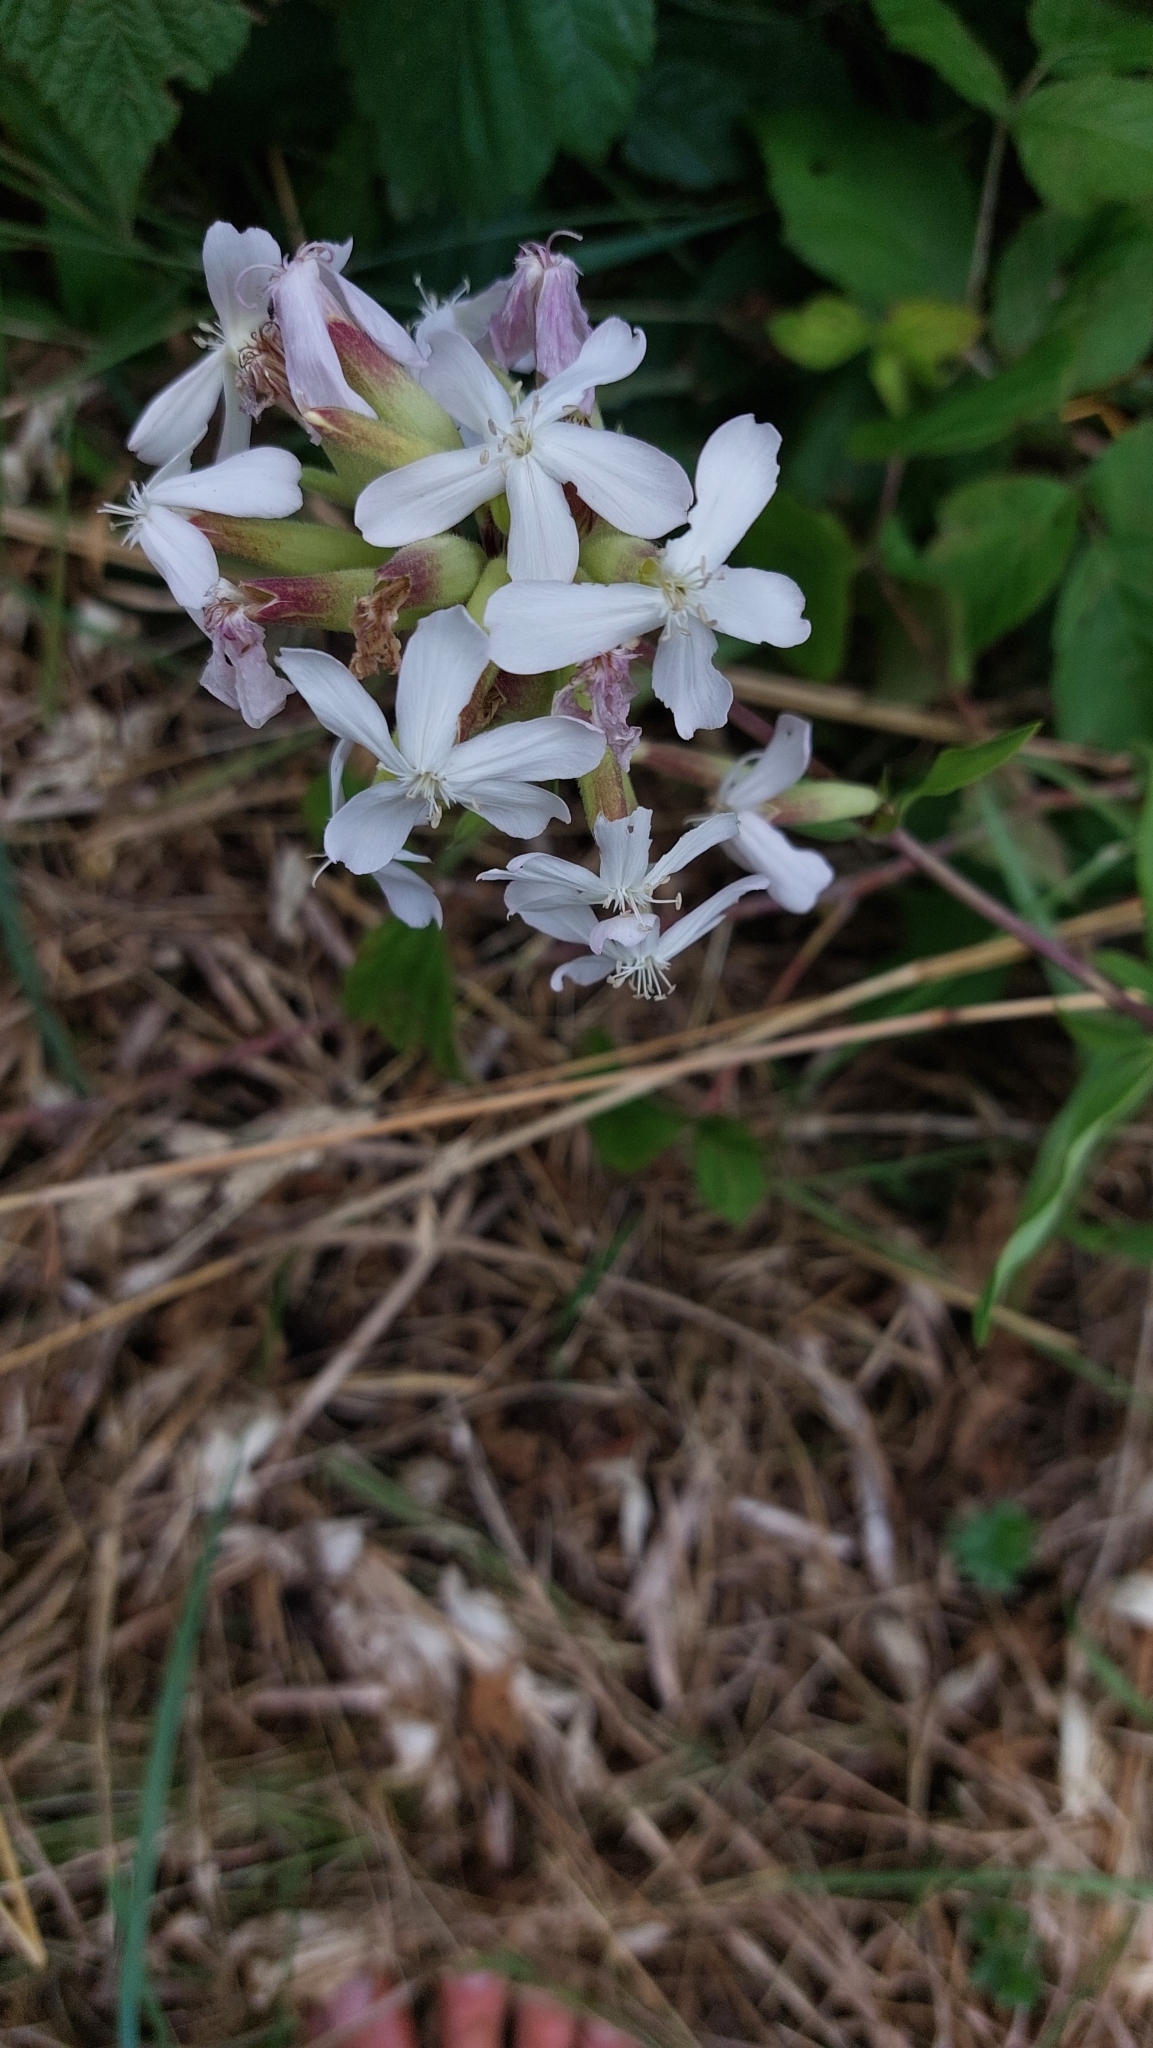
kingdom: Plantae
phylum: Tracheophyta
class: Magnoliopsida
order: Caryophyllales
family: Caryophyllaceae
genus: Saponaria
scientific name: Saponaria officinalis
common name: Soapwort
